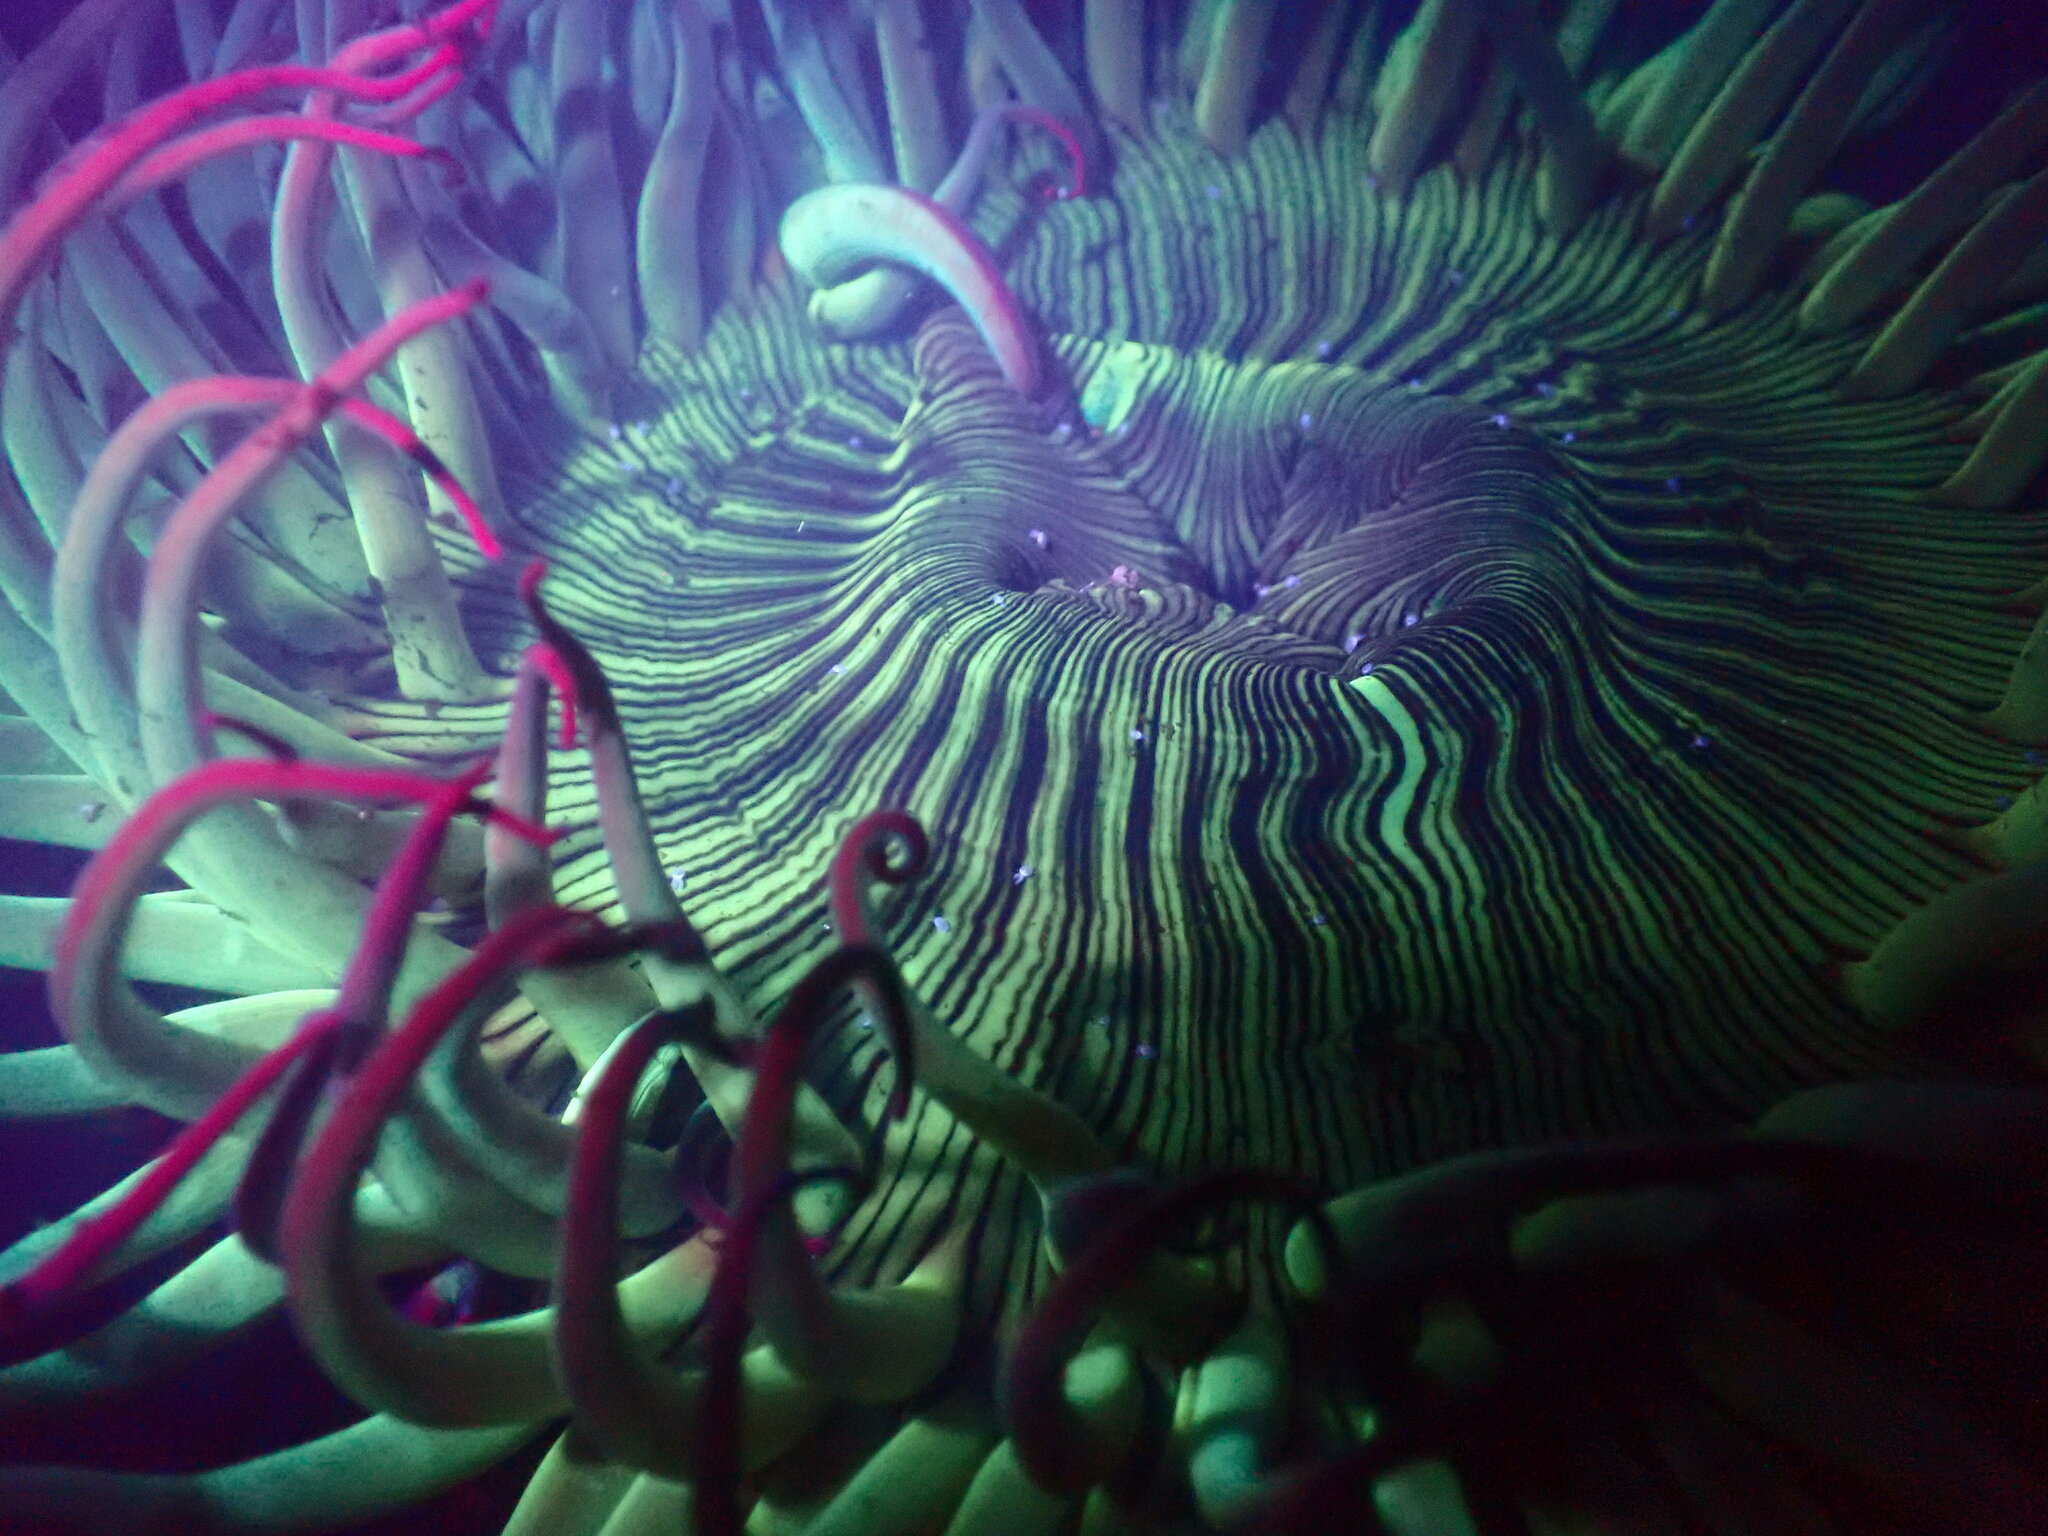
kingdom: Animalia
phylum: Cnidaria
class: Anthozoa
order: Actiniaria
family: Actiniidae
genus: Anthopleura
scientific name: Anthopleura sola
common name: Sun anemone
